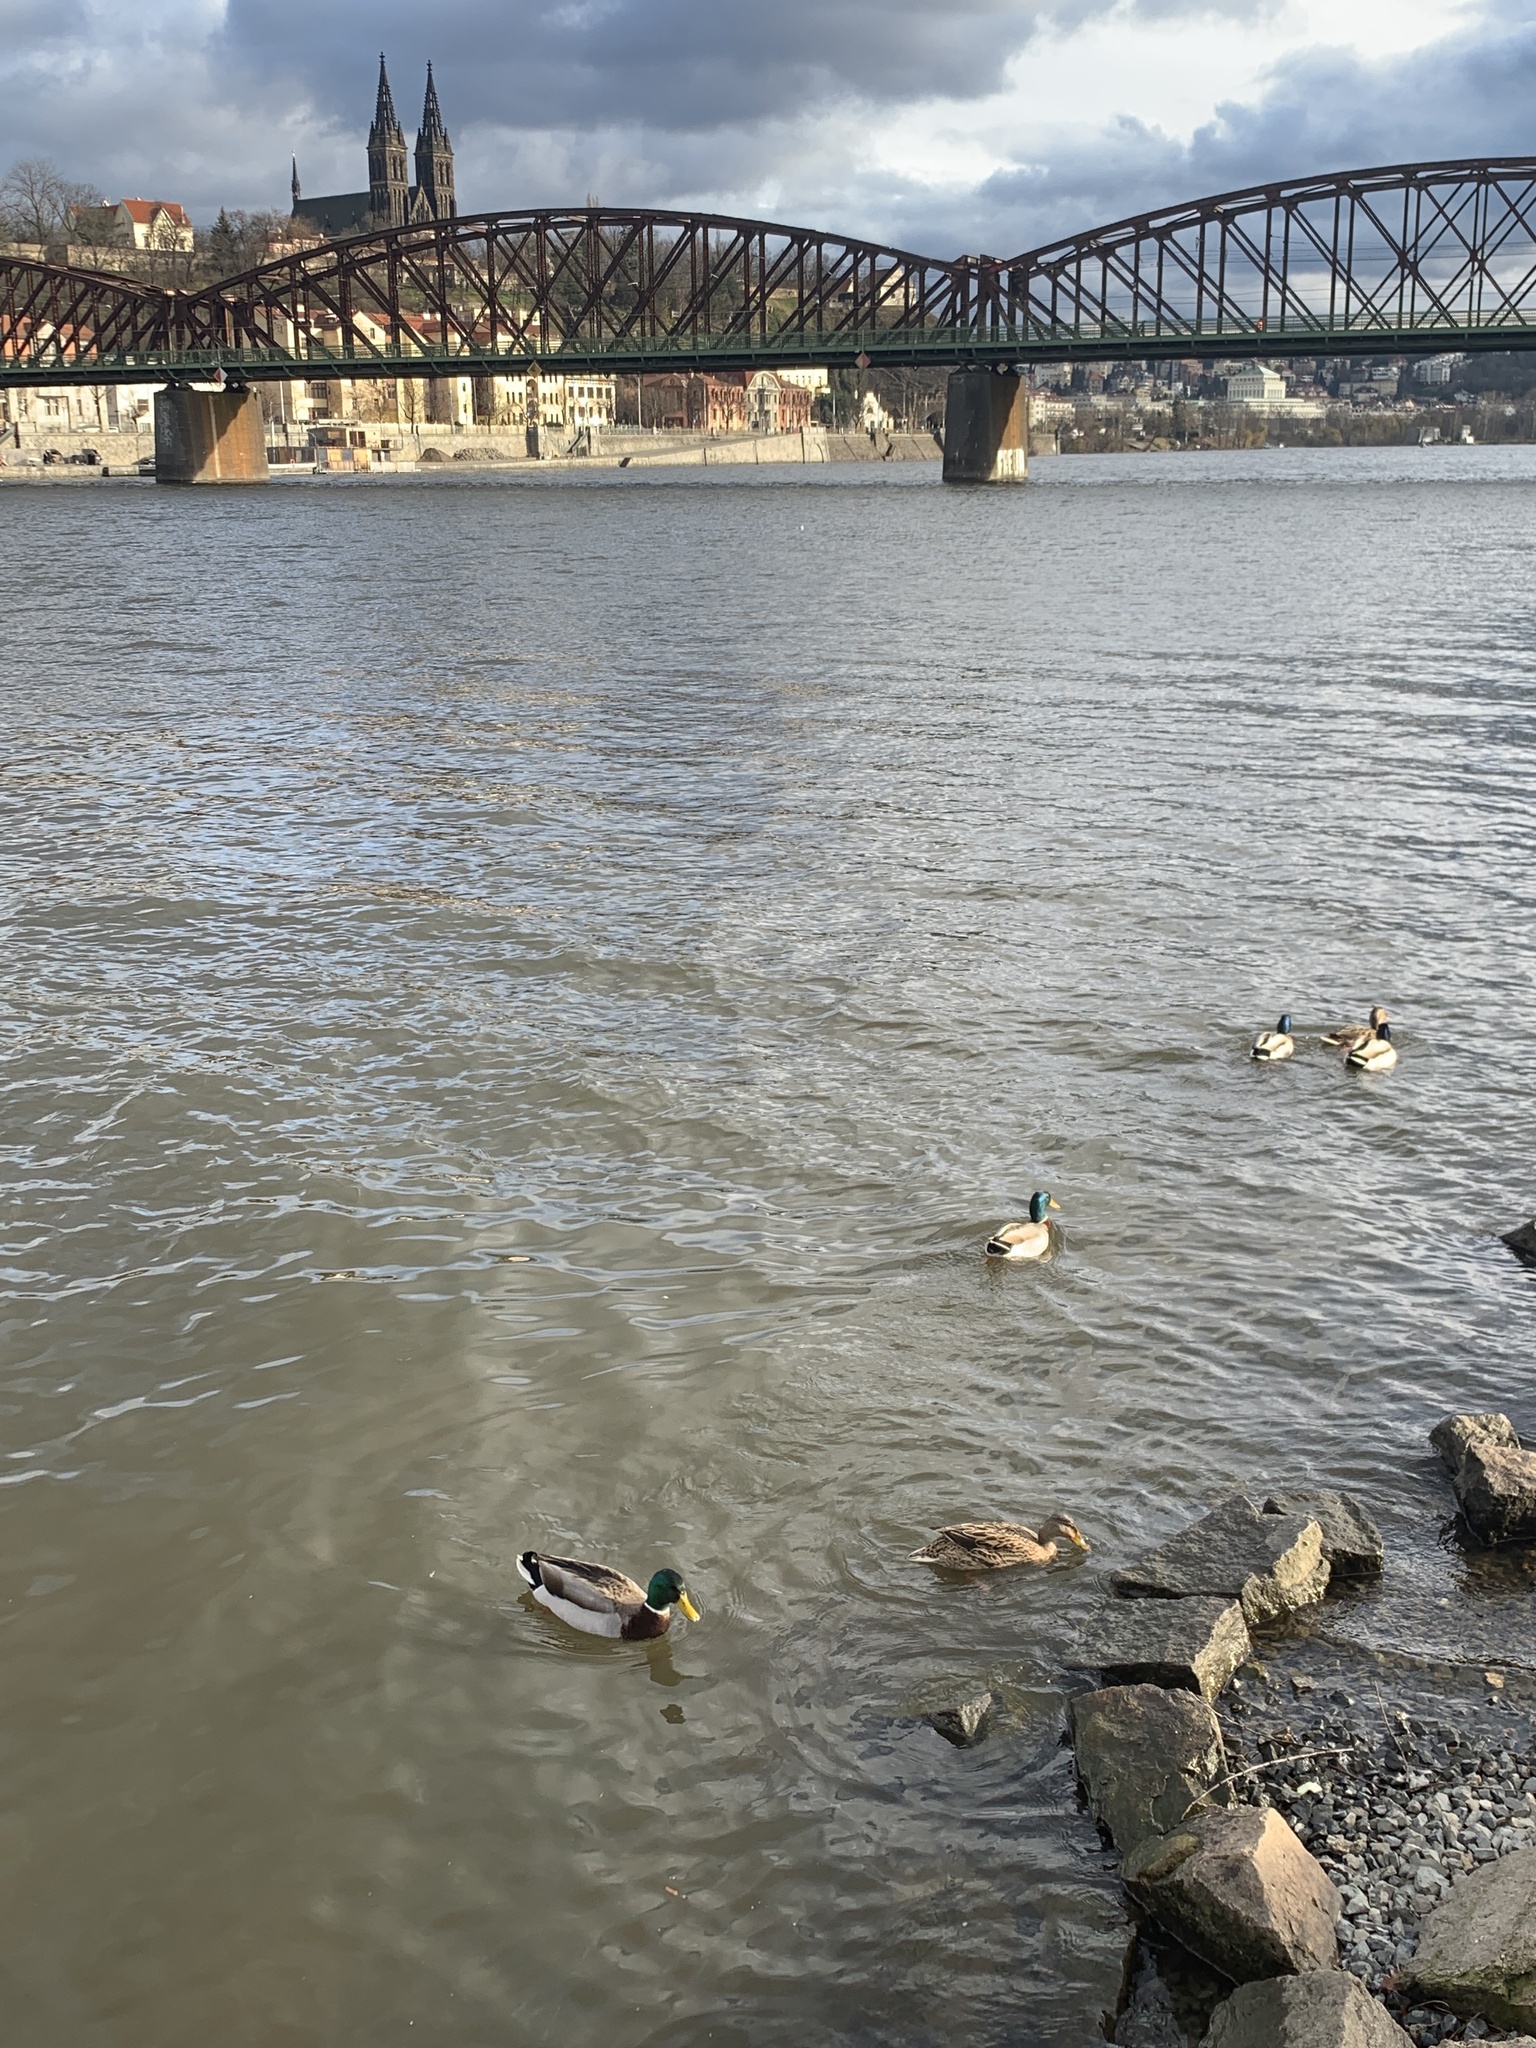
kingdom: Animalia
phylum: Chordata
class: Aves
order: Anseriformes
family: Anatidae
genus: Anas
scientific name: Anas platyrhynchos
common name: Mallard
